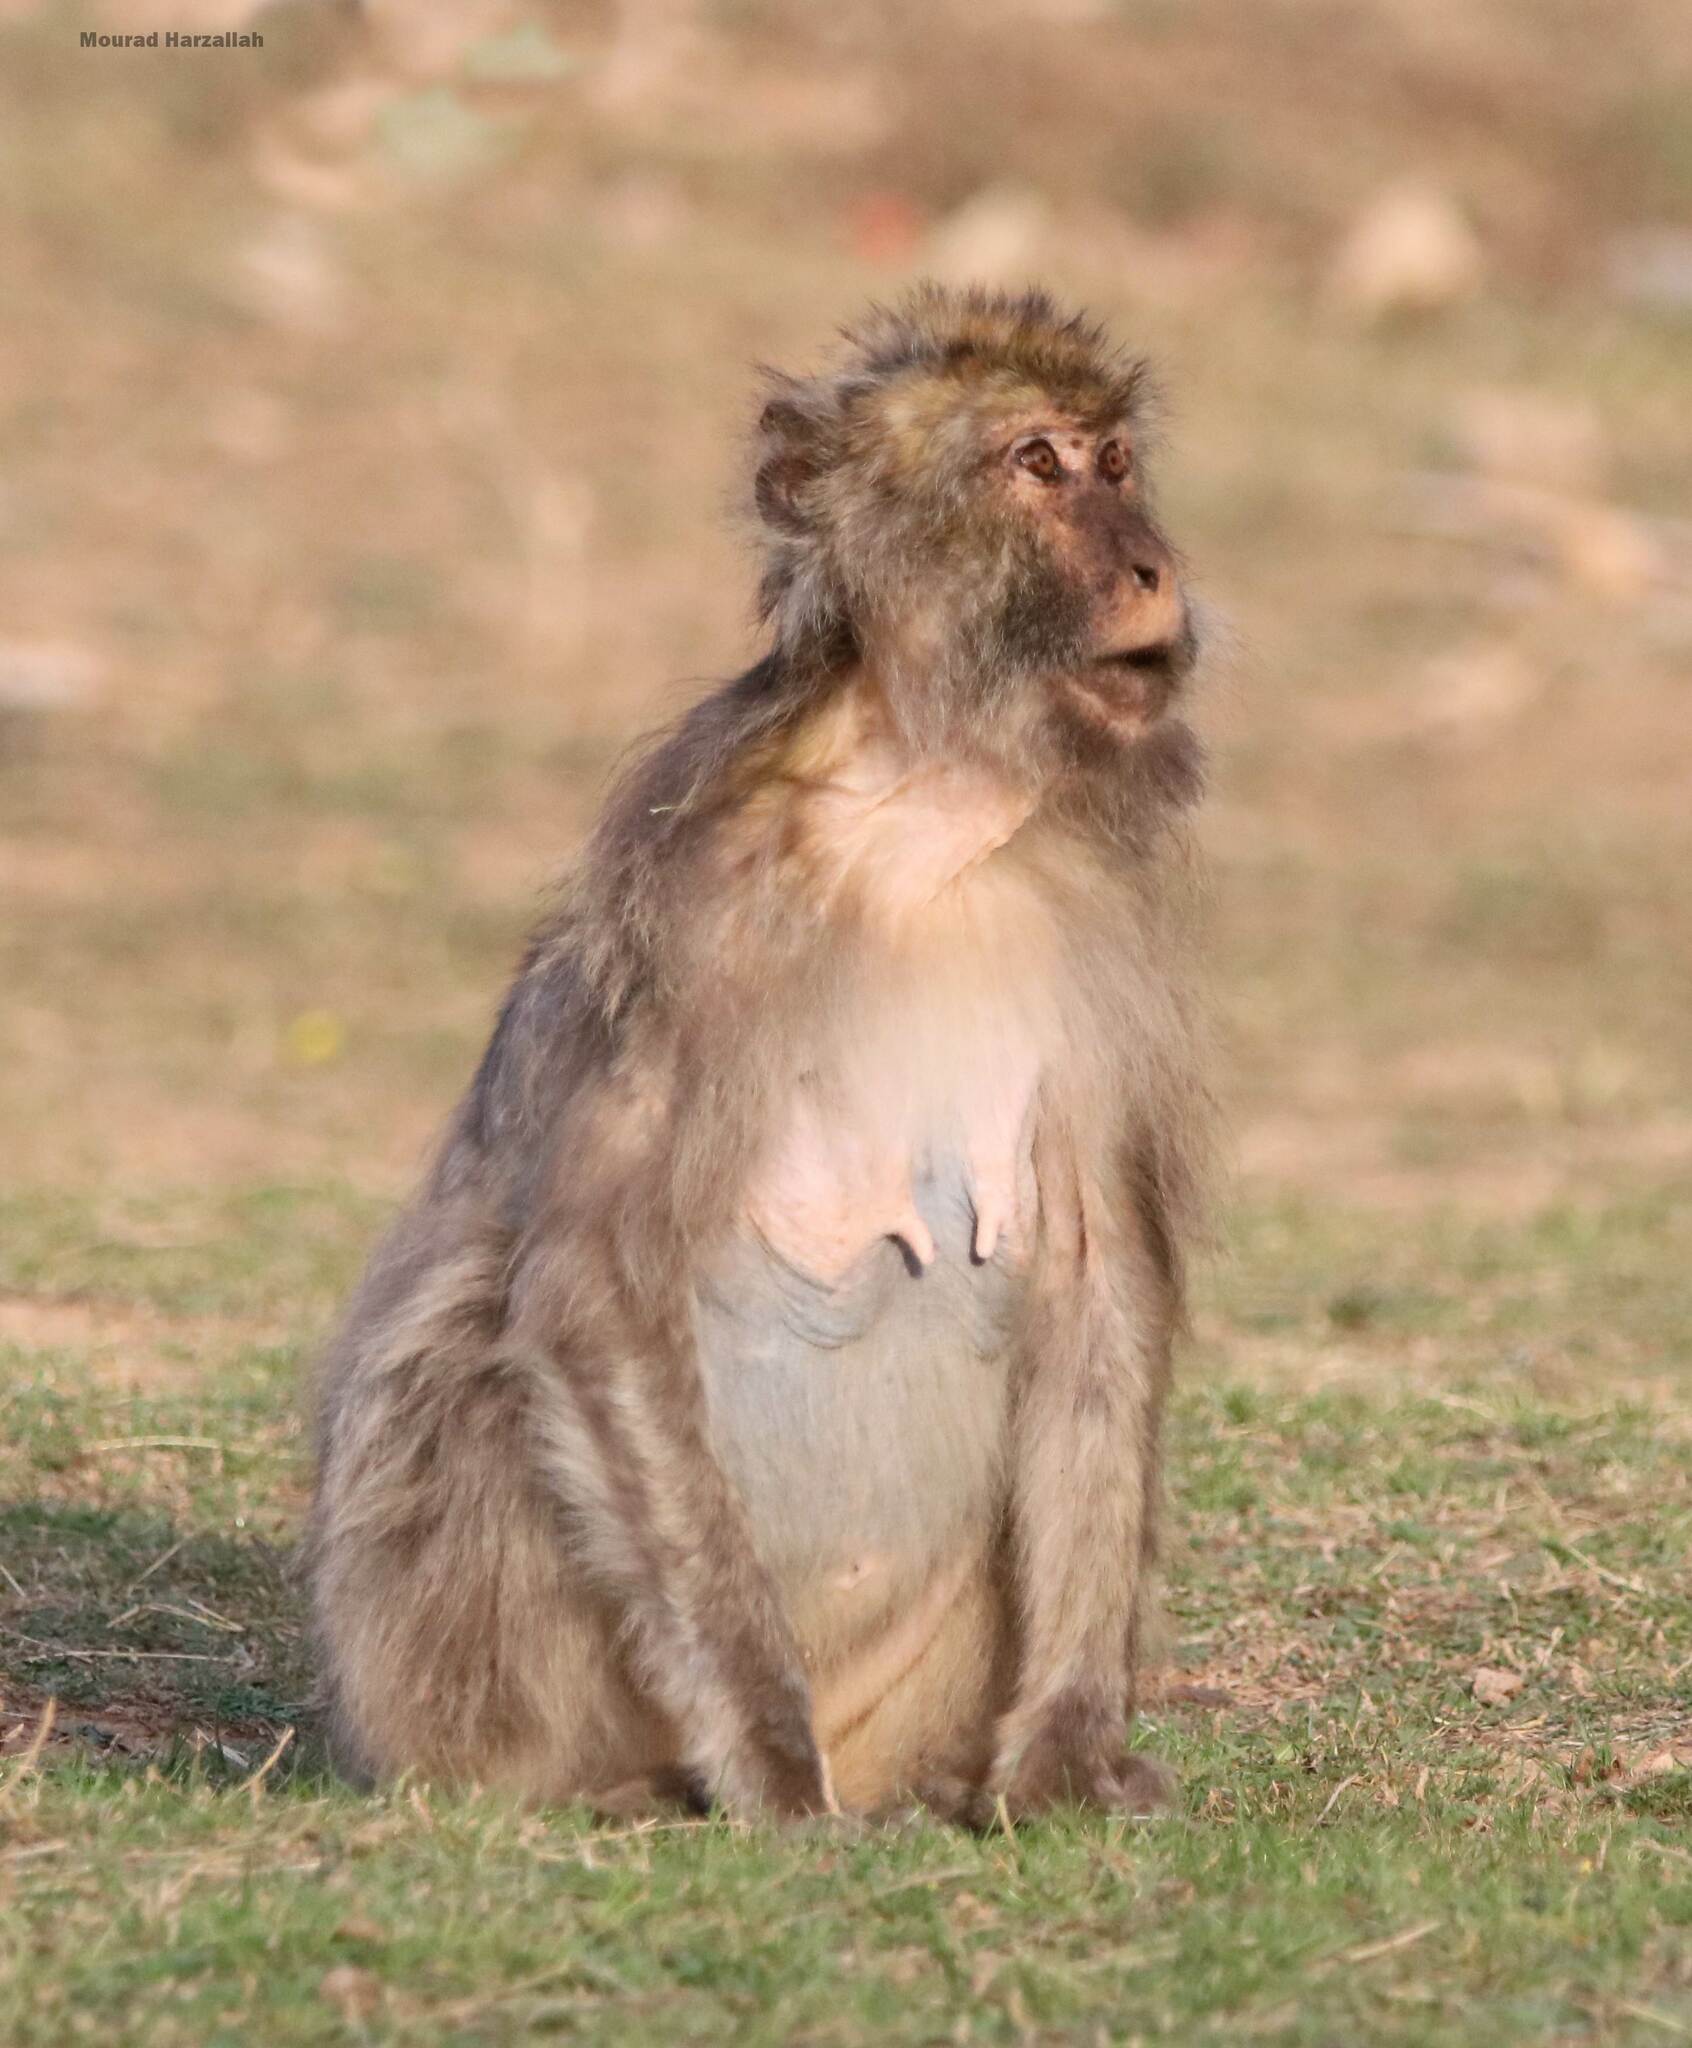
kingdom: Animalia
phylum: Chordata
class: Mammalia
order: Primates
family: Cercopithecidae
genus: Macaca
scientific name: Macaca sylvanus
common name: Barbary macaque
